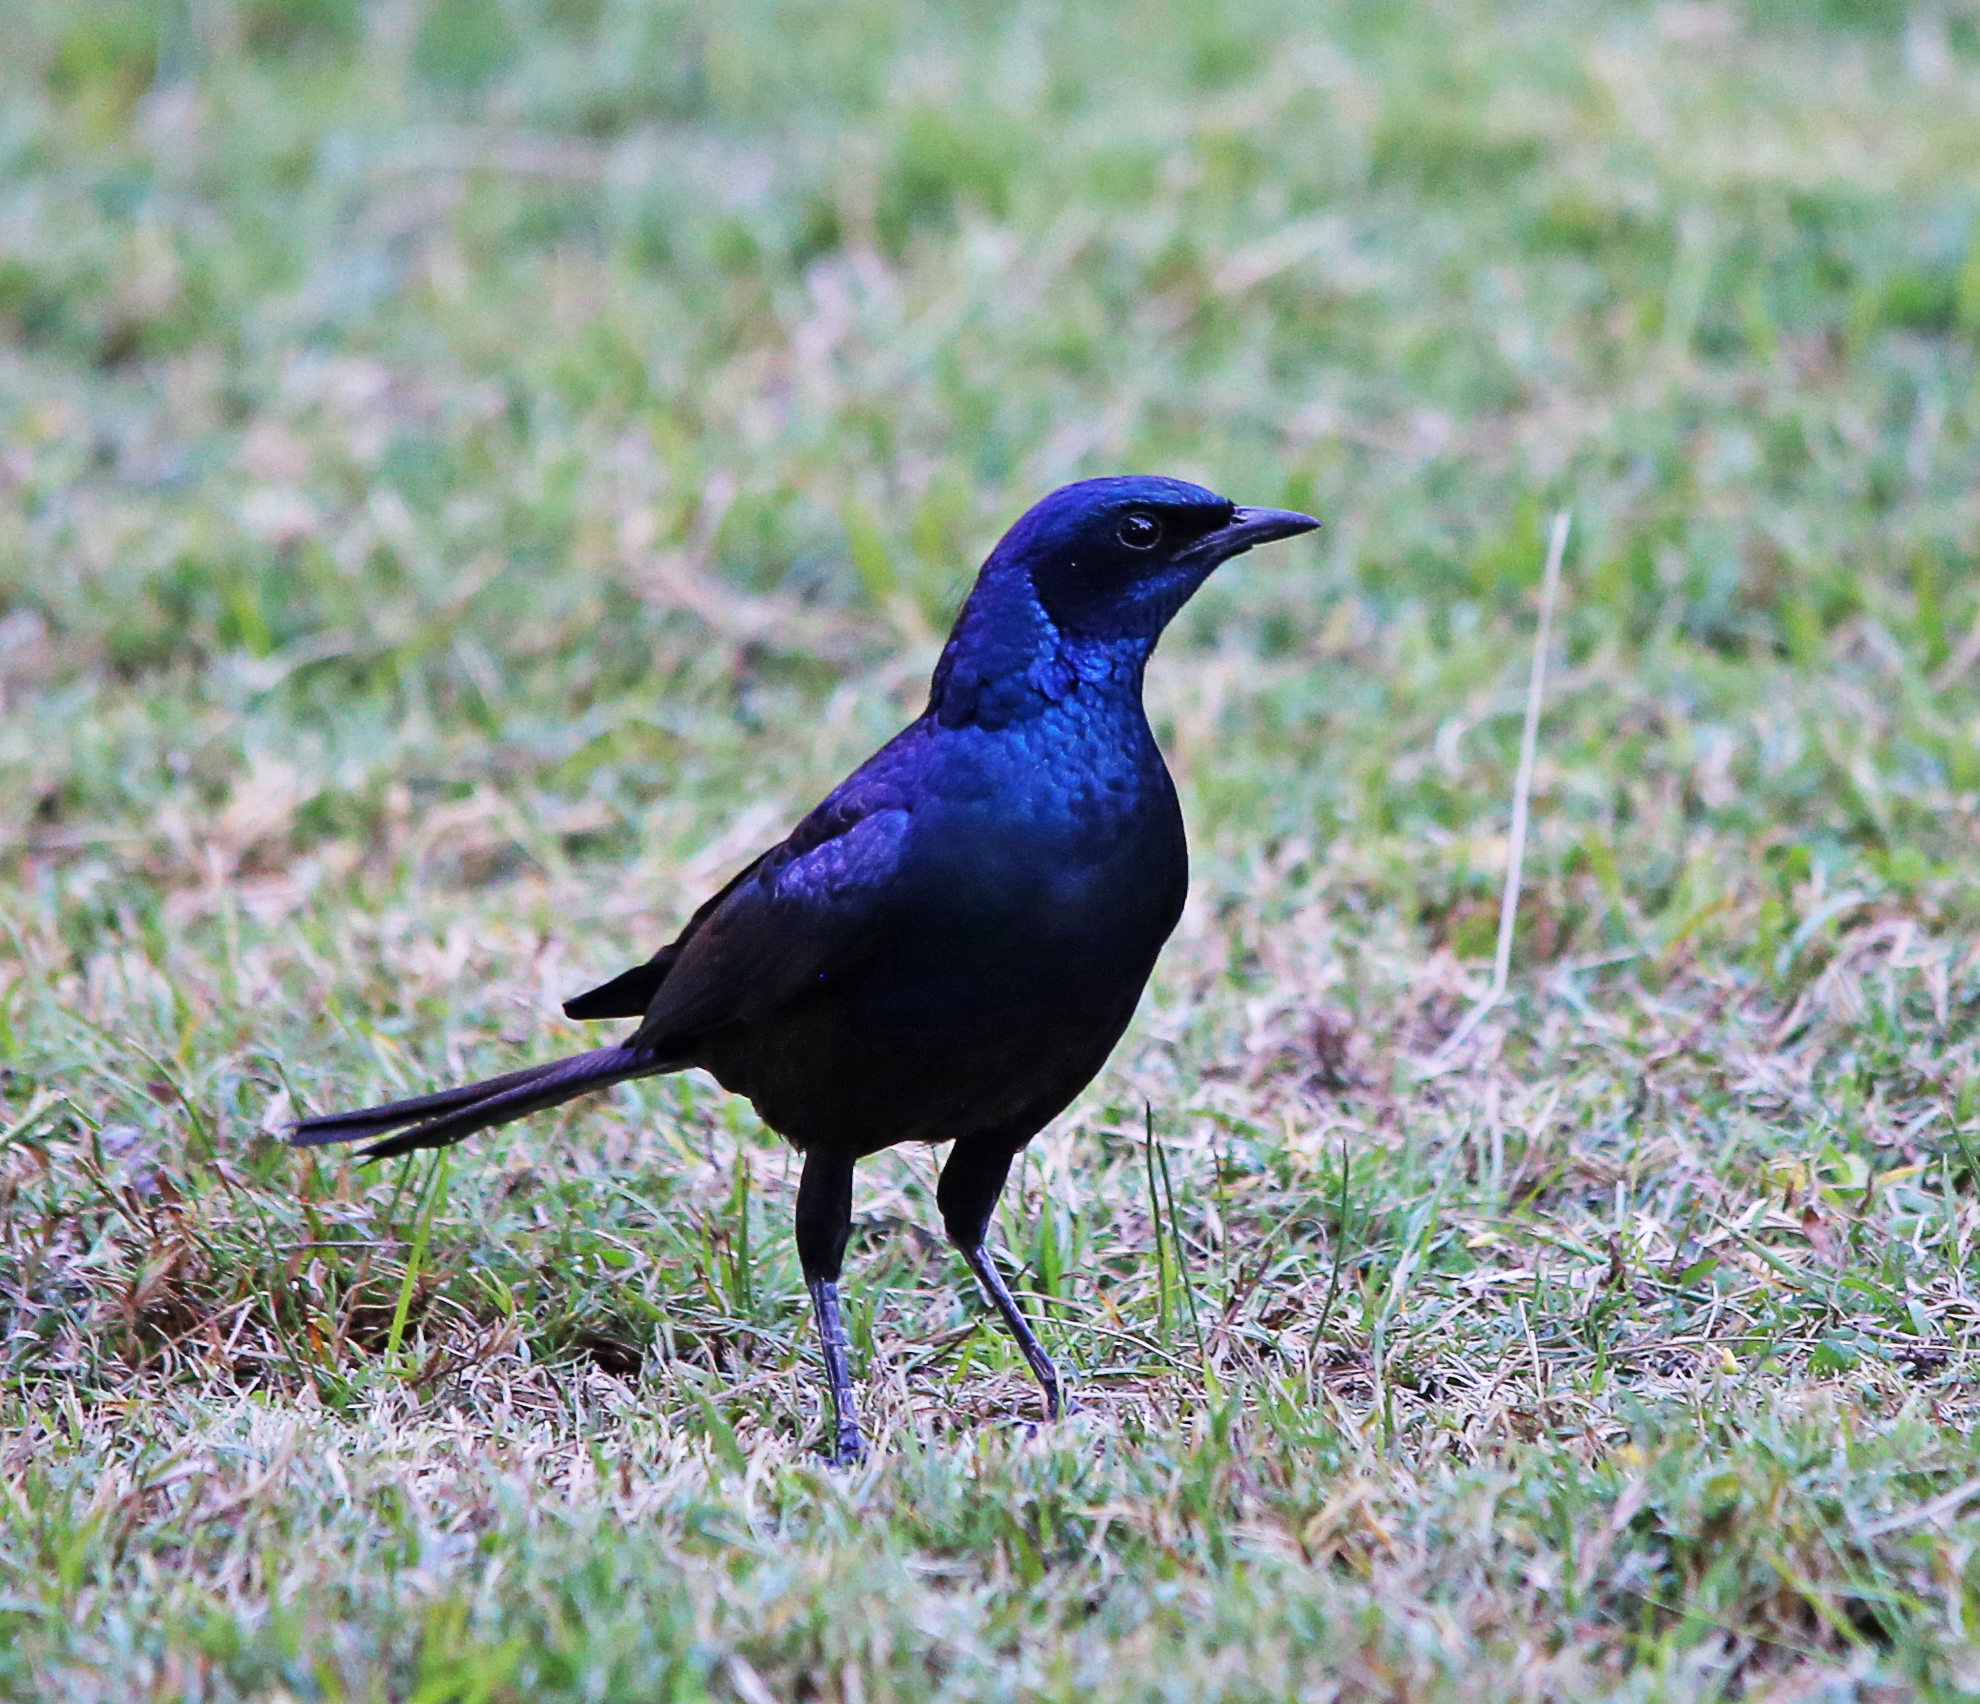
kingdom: Animalia
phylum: Chordata
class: Aves
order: Passeriformes
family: Sturnidae
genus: Lamprotornis
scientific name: Lamprotornis mevesii
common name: Meves's starling
